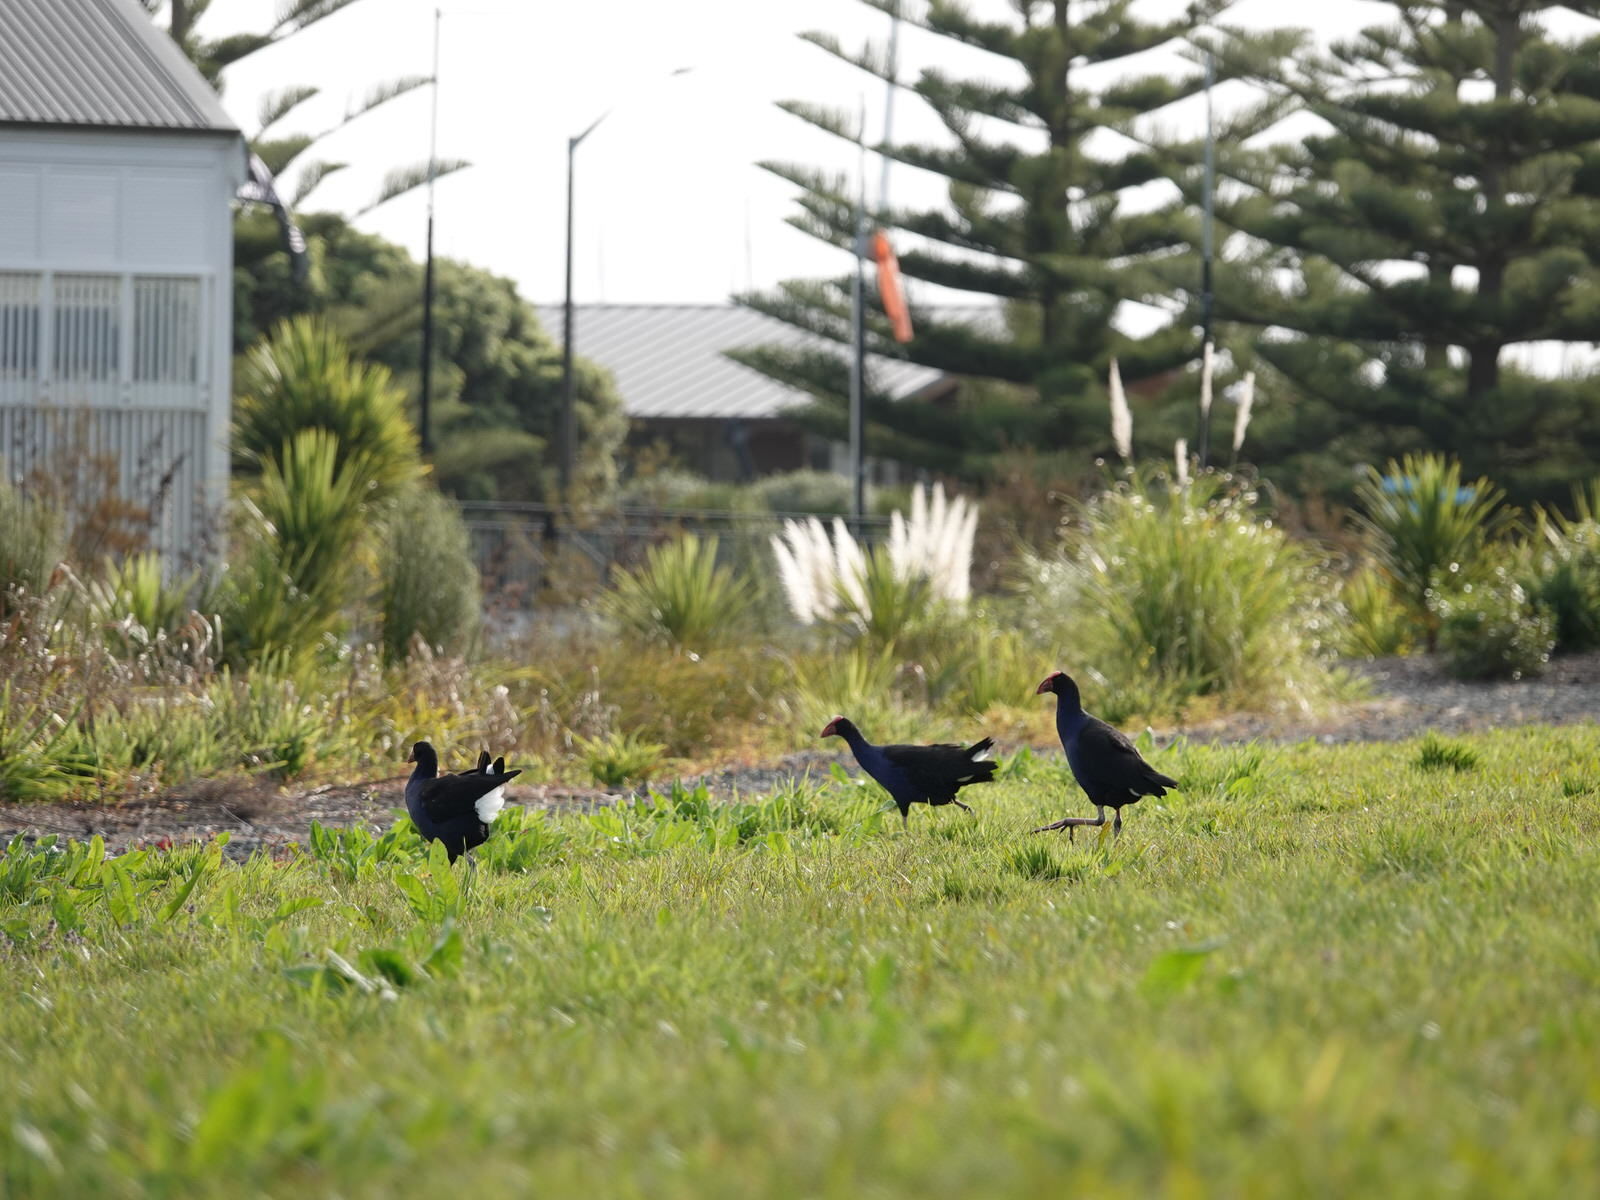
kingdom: Animalia
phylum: Chordata
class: Aves
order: Gruiformes
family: Rallidae
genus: Porphyrio
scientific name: Porphyrio melanotus
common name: Australasian swamphen
